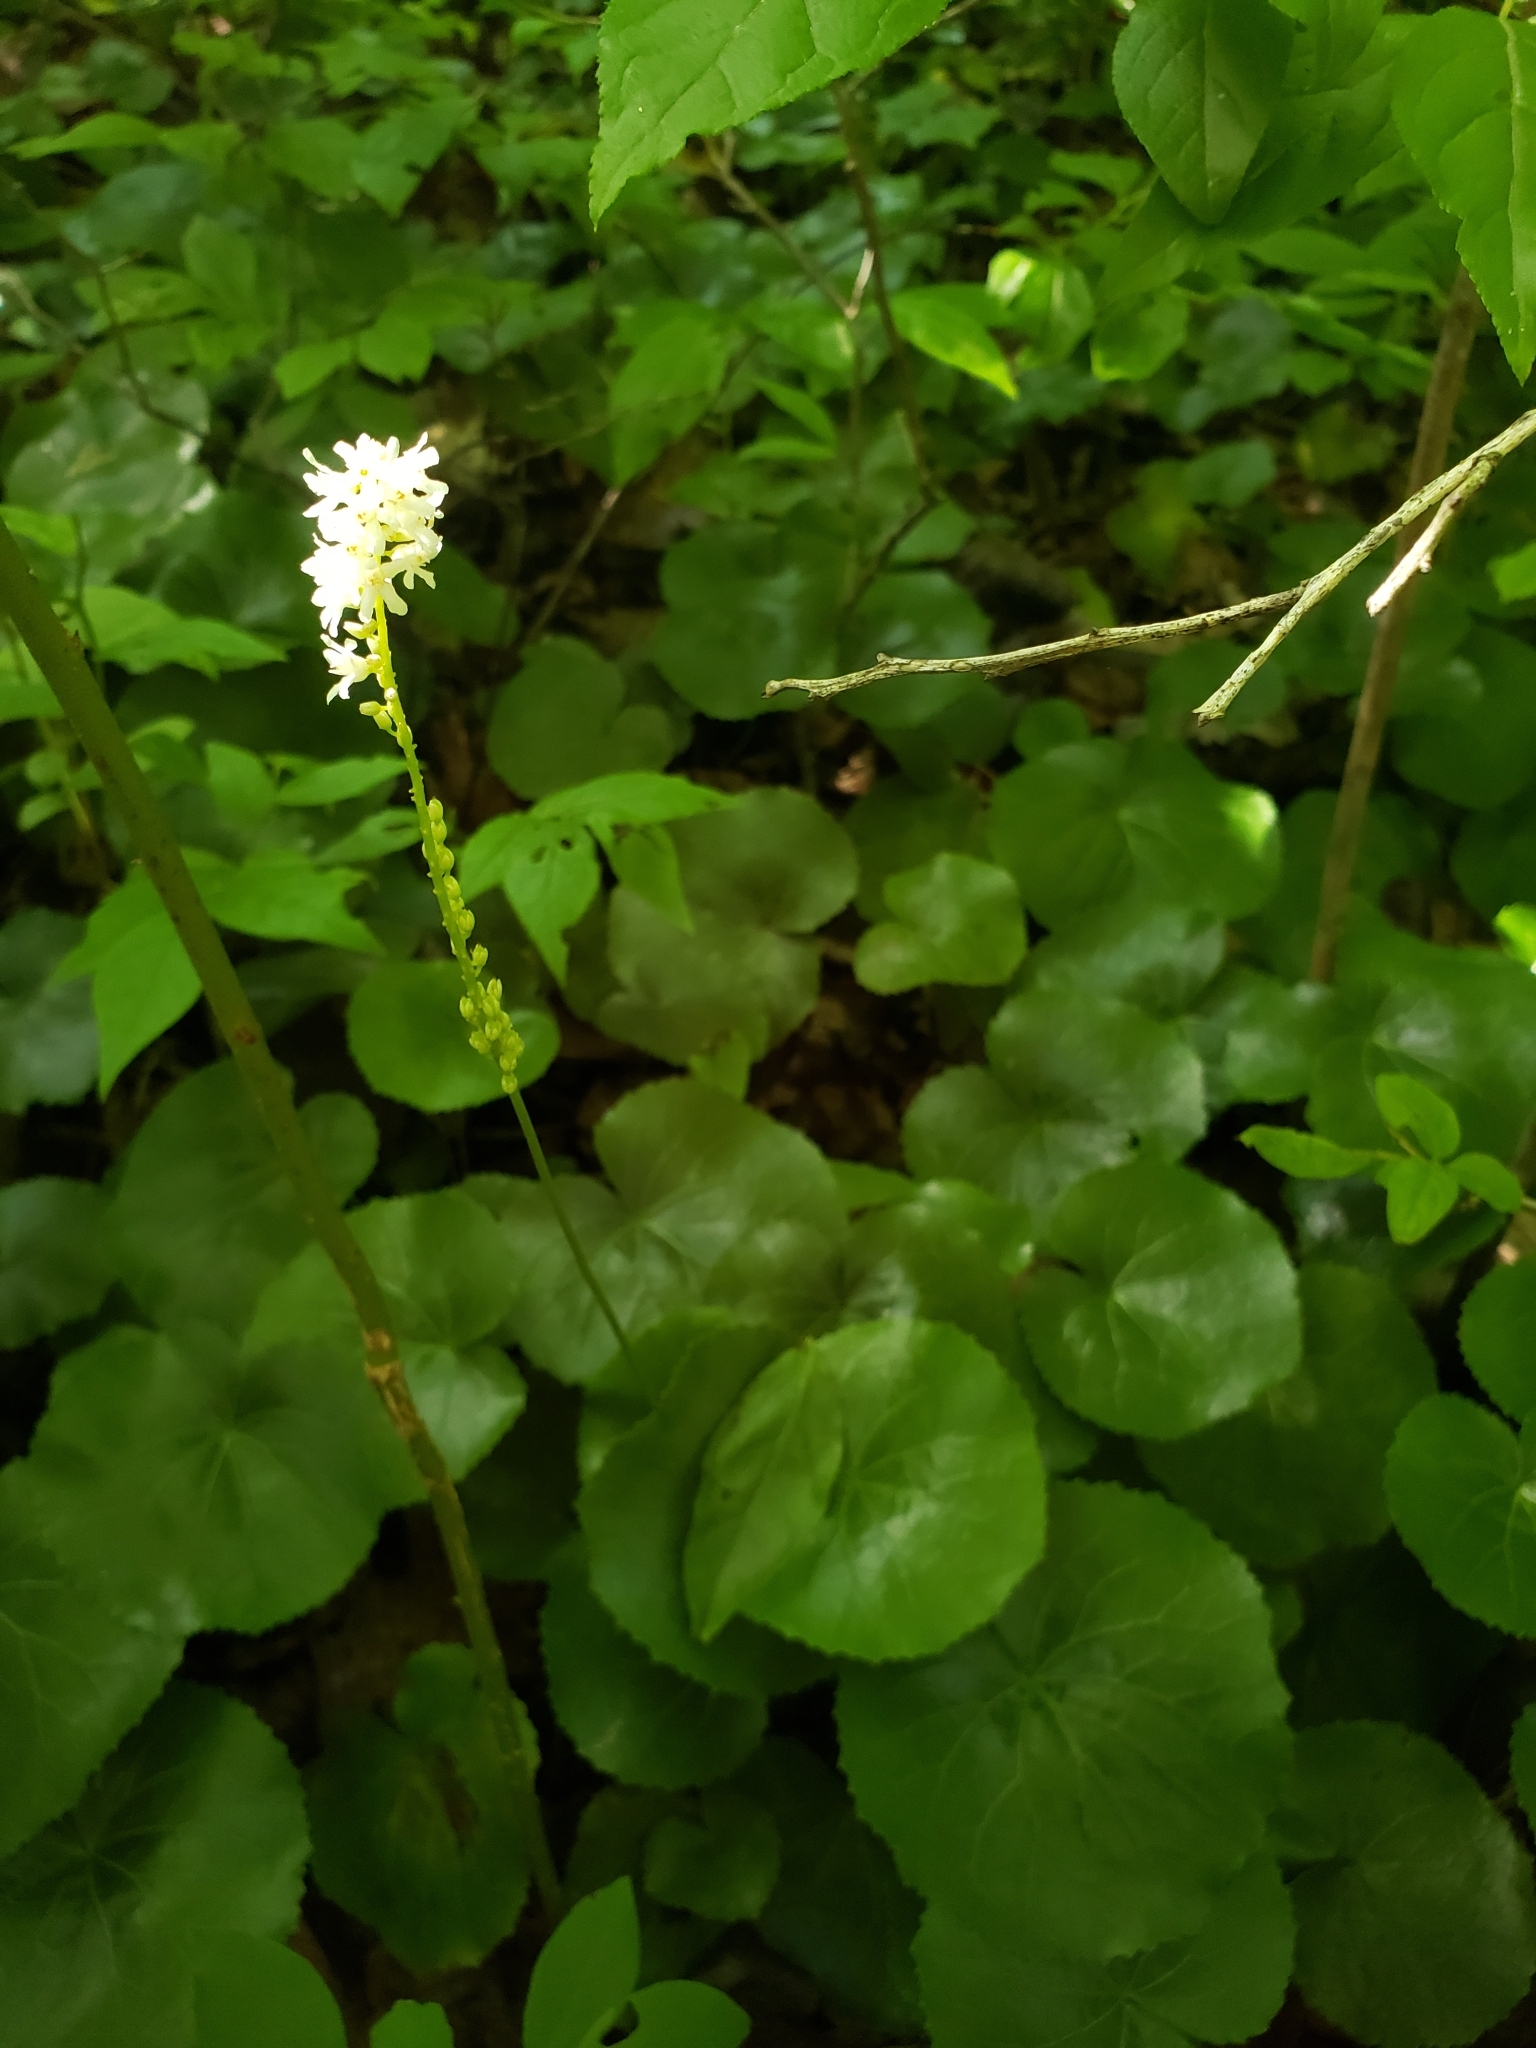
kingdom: Plantae
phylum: Tracheophyta
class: Magnoliopsida
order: Ericales
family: Diapensiaceae
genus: Galax
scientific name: Galax urceolata
